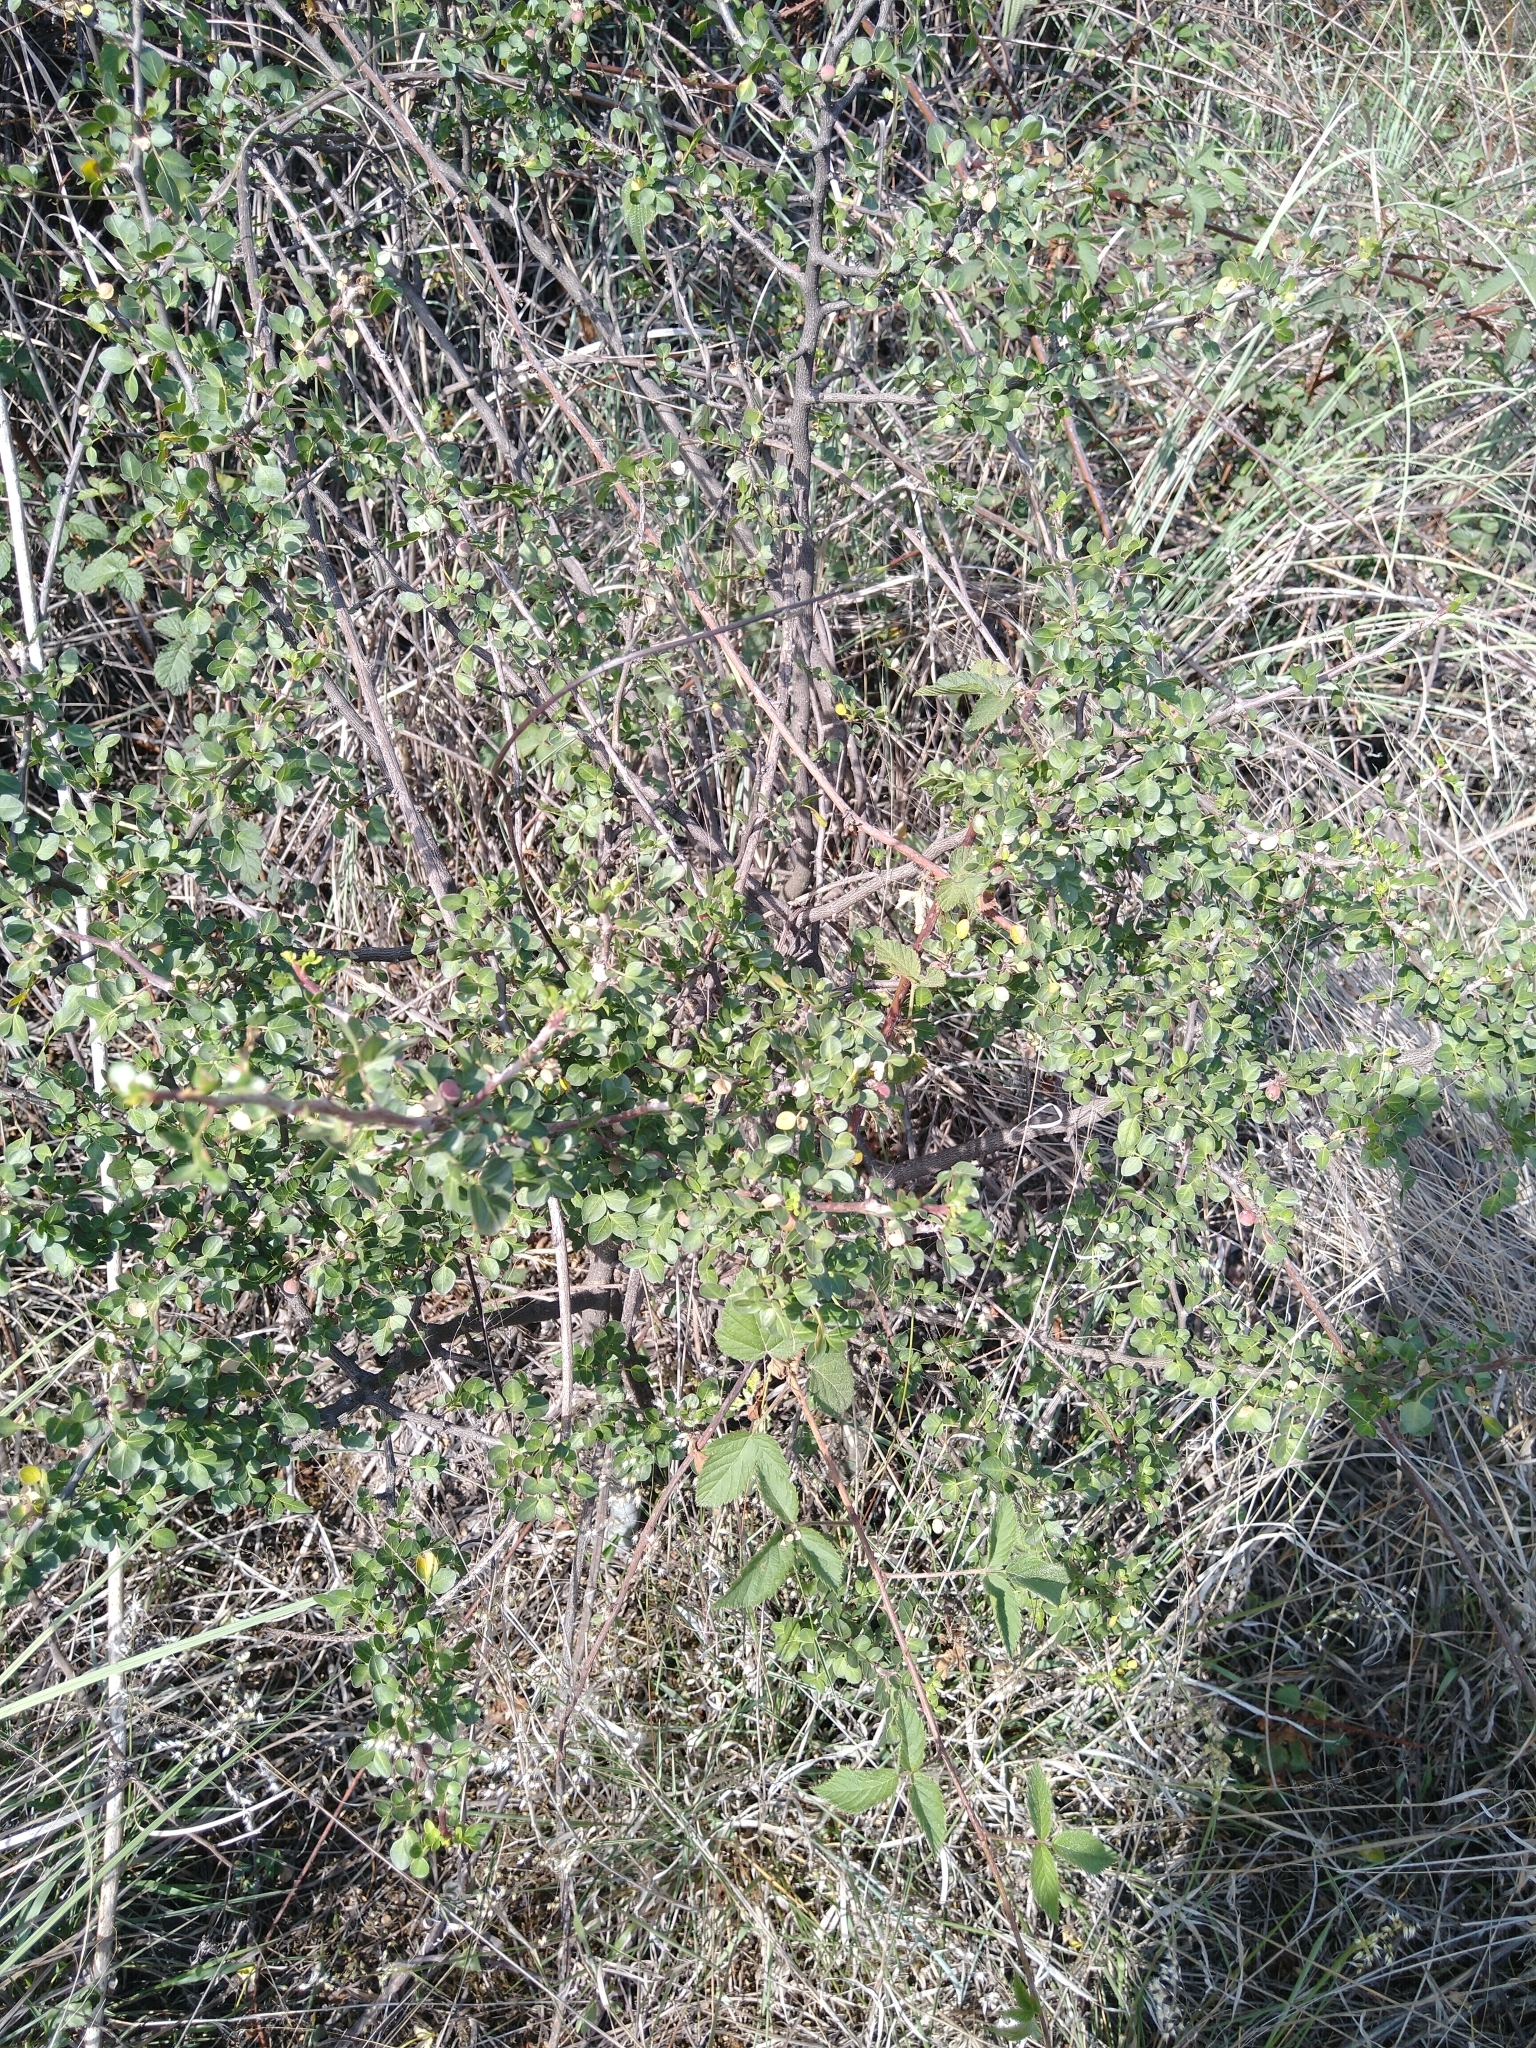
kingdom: Plantae
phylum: Tracheophyta
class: Magnoliopsida
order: Sapindales
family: Burseraceae
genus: Bursera
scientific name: Bursera fagaroides
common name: Elephant tree
